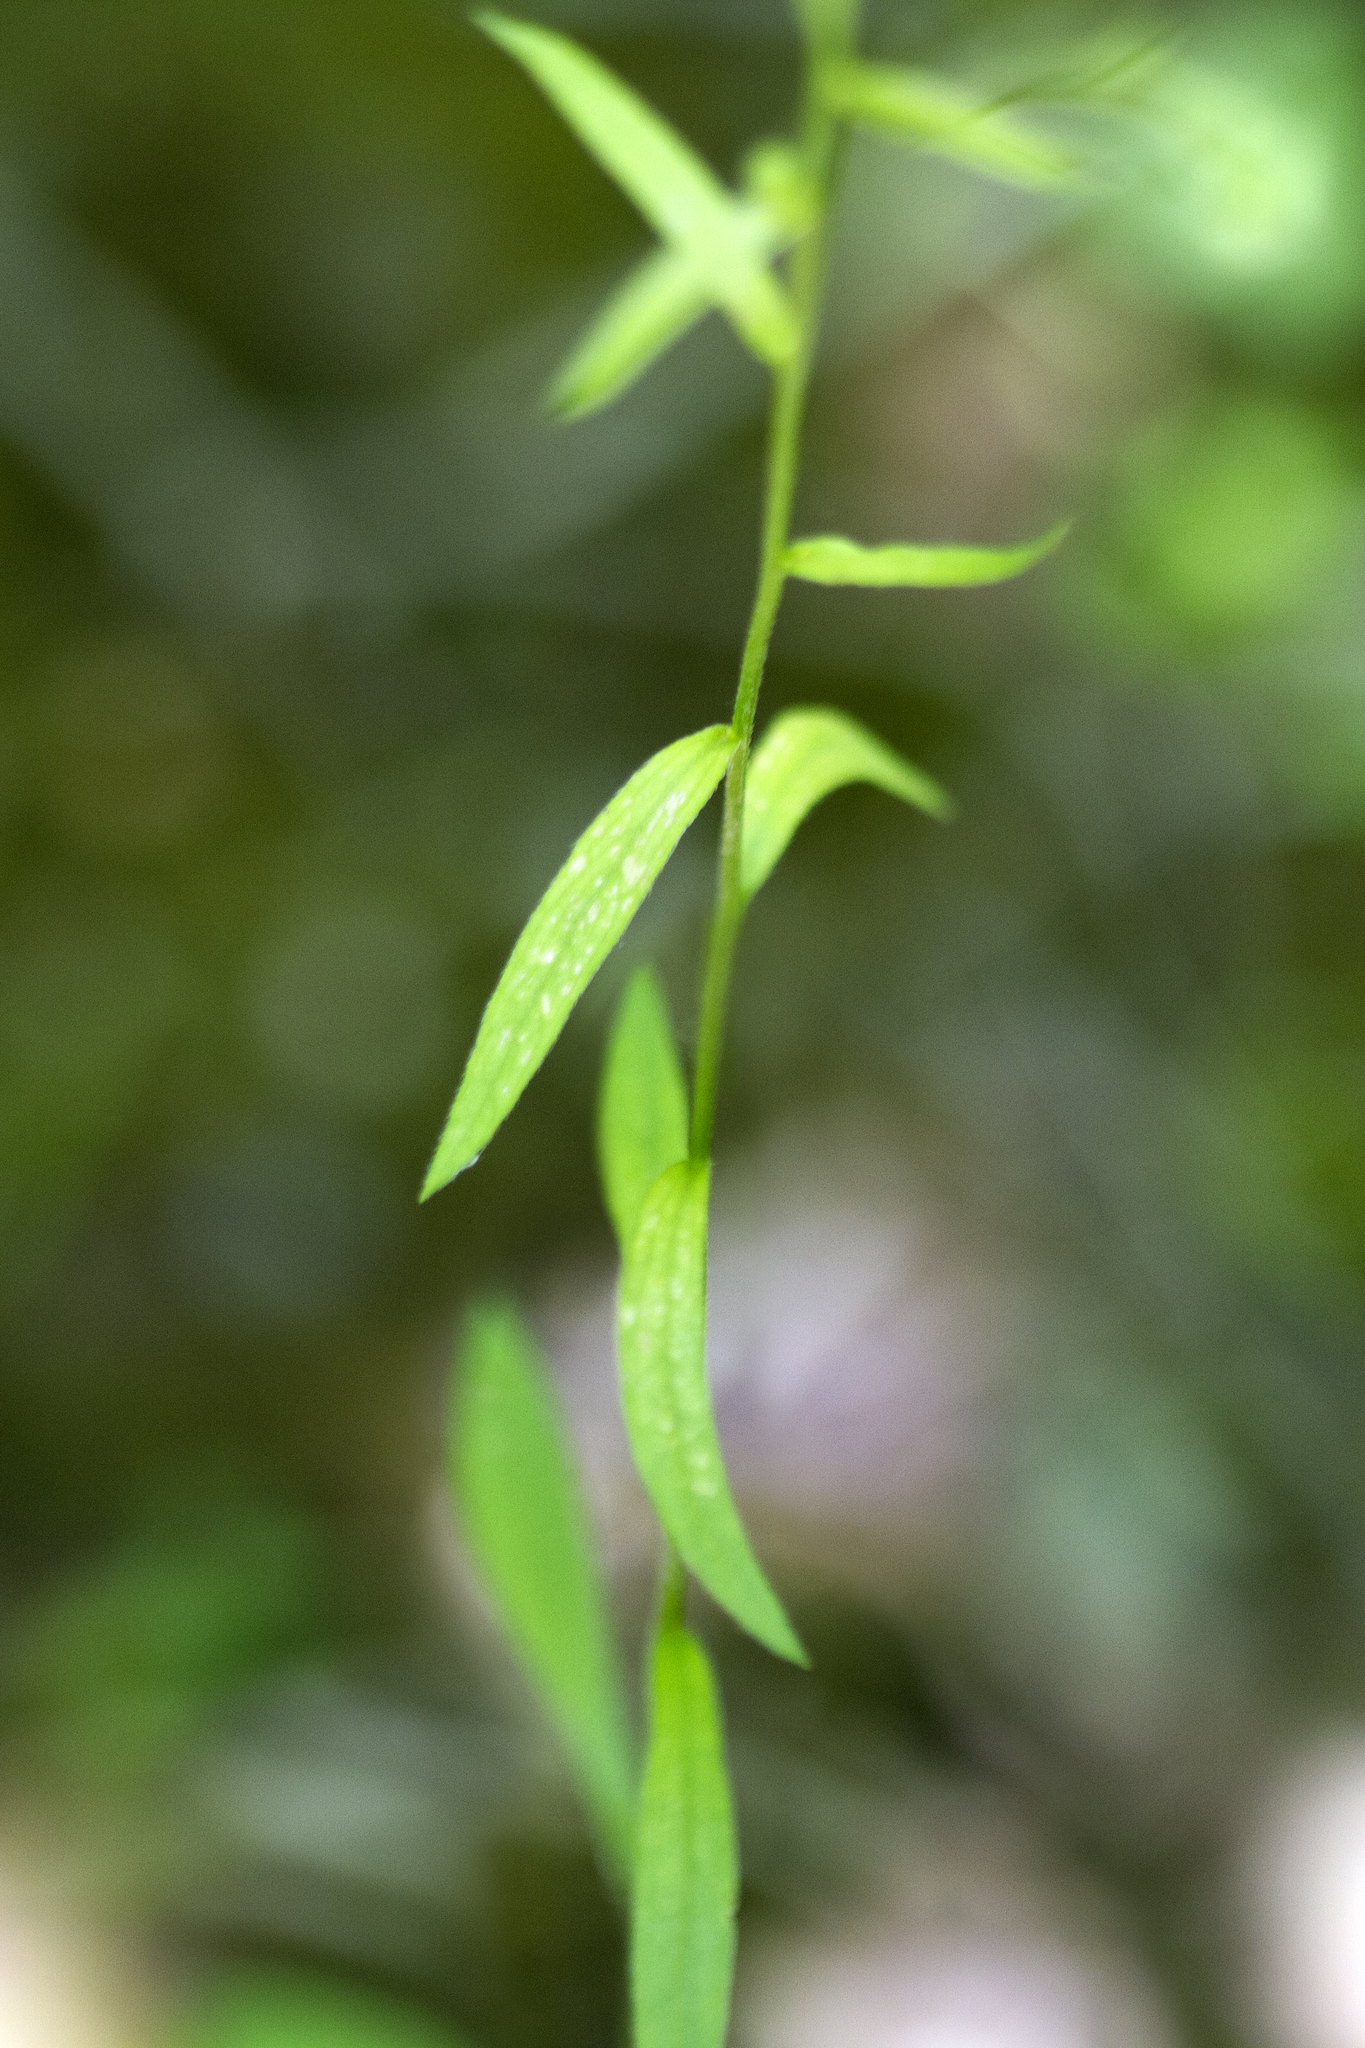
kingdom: Plantae
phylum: Tracheophyta
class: Magnoliopsida
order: Asterales
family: Asteraceae
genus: Erigeron
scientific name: Erigeron strigosus
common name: Common eastern fleabane
